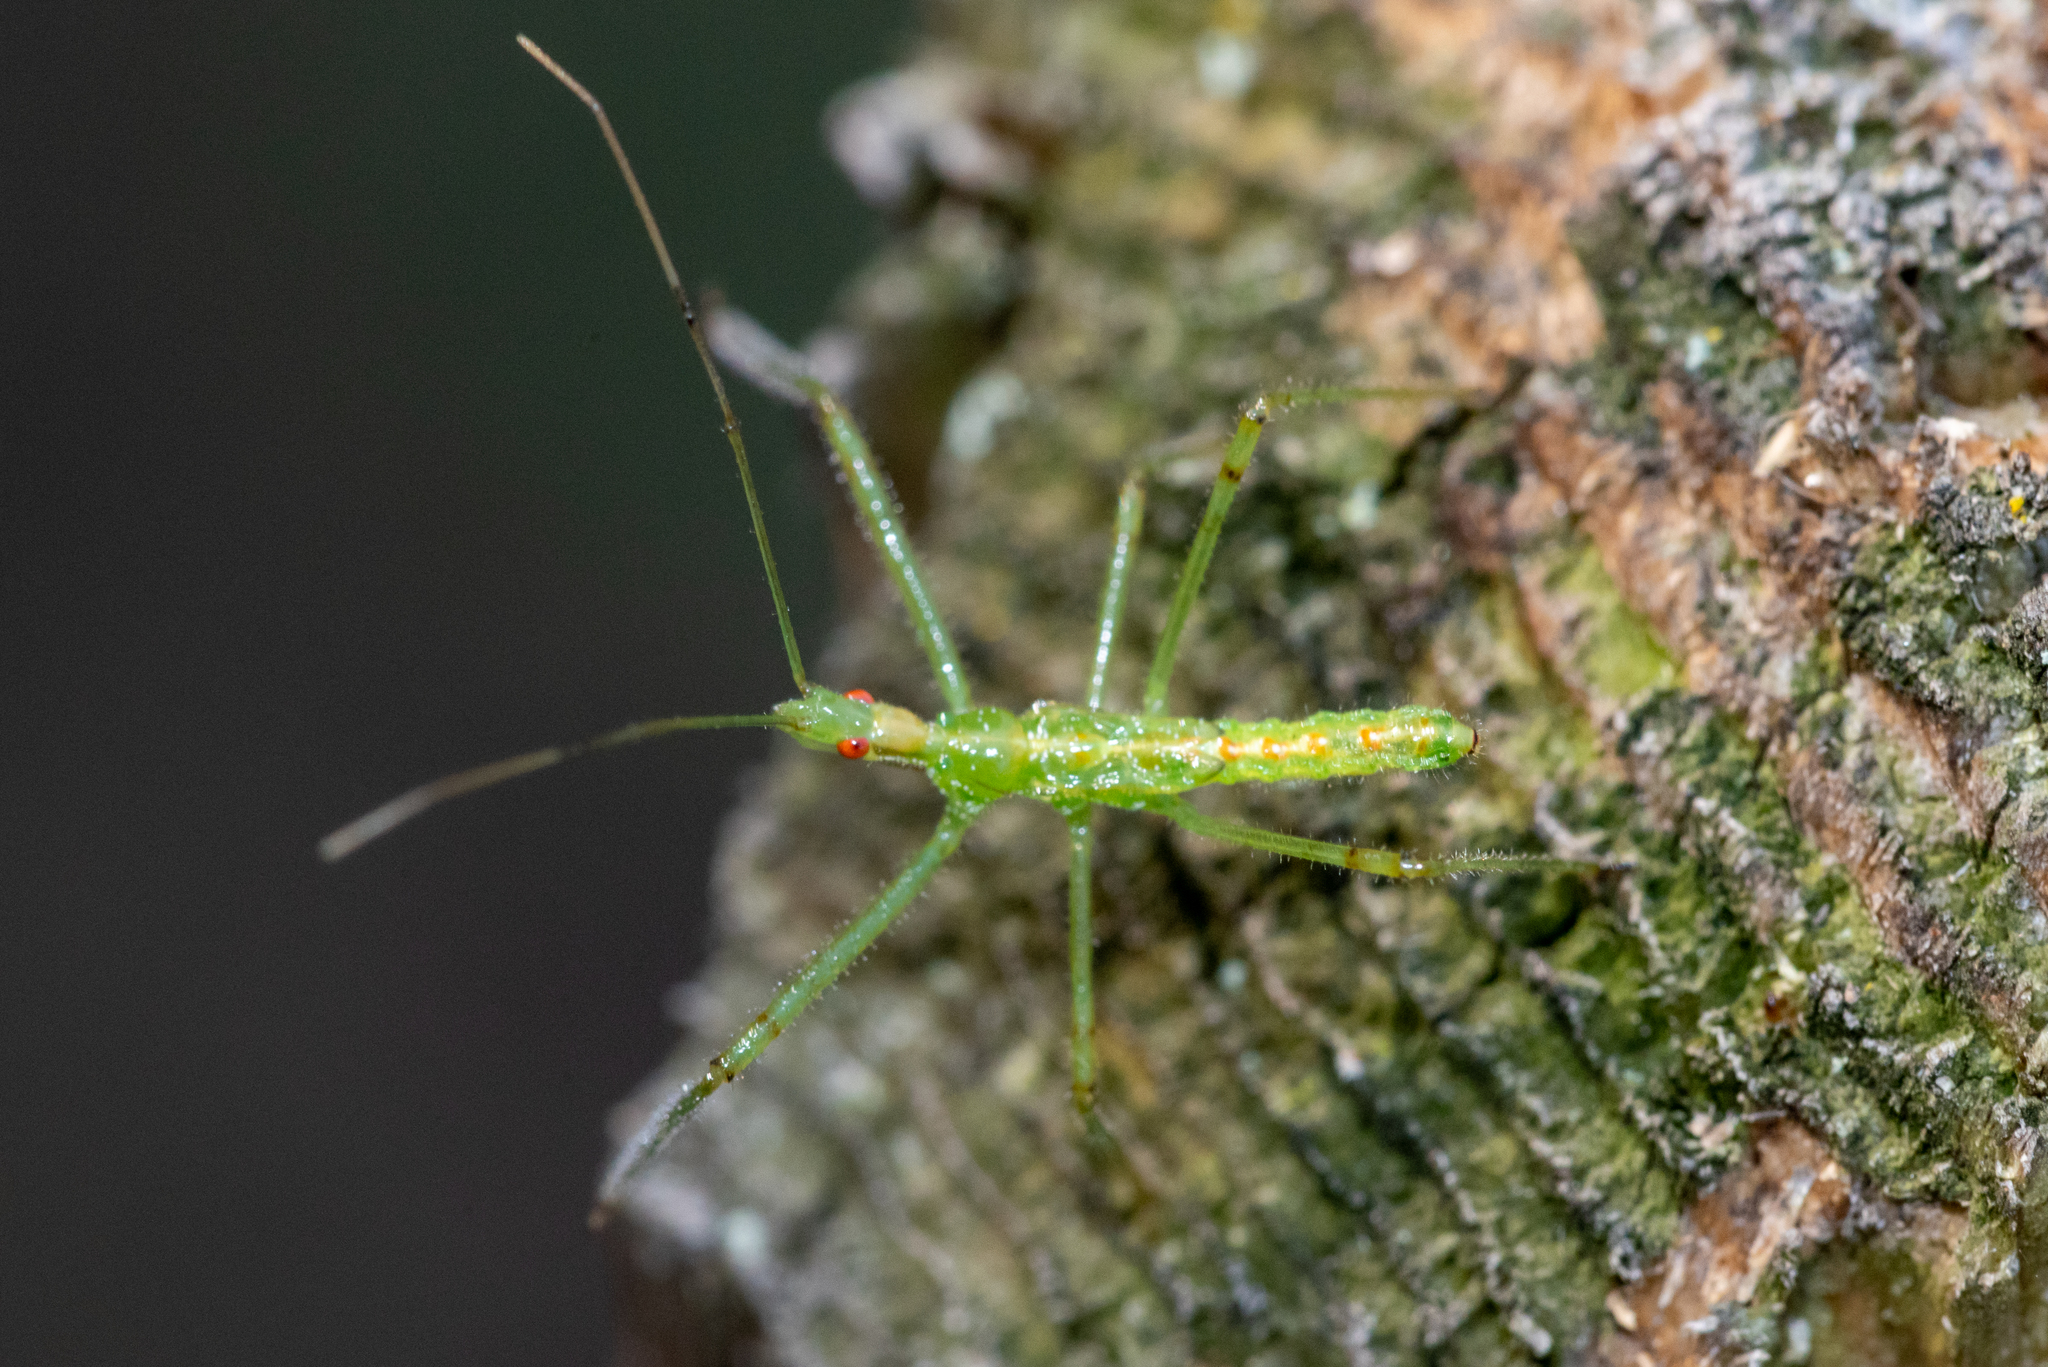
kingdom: Animalia
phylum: Arthropoda
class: Insecta
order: Hemiptera
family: Reduviidae
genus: Zelus
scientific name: Zelus luridus
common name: Pale green assassin bug
